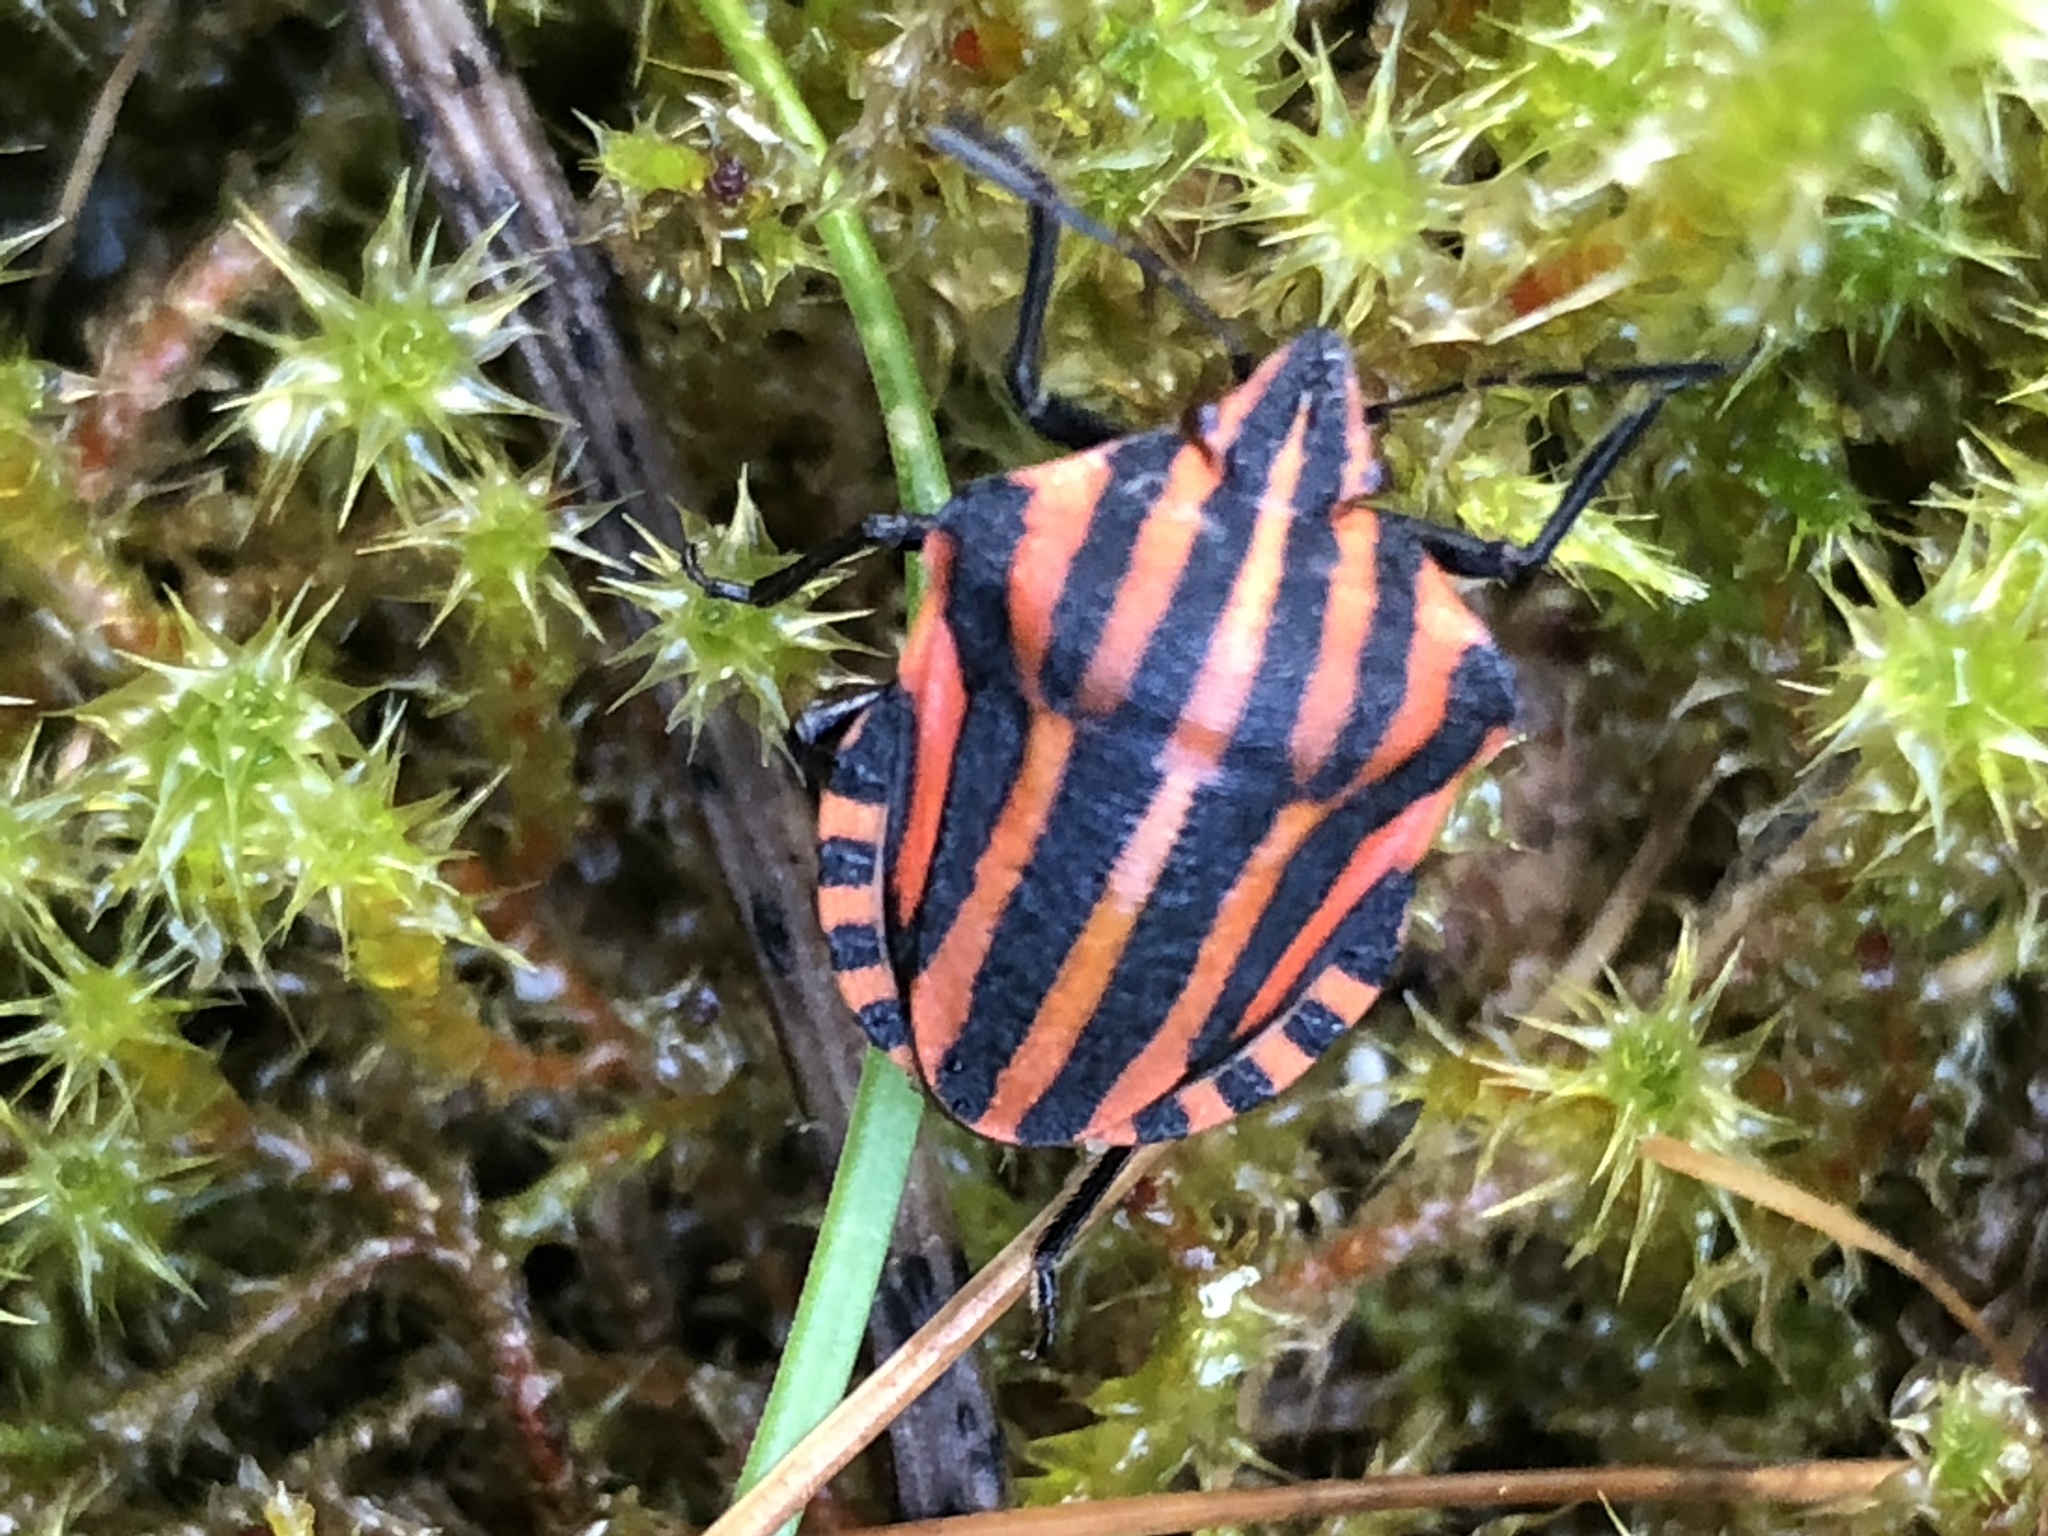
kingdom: Animalia
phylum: Arthropoda
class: Insecta
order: Hemiptera
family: Pentatomidae
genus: Graphosoma
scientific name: Graphosoma italicum
